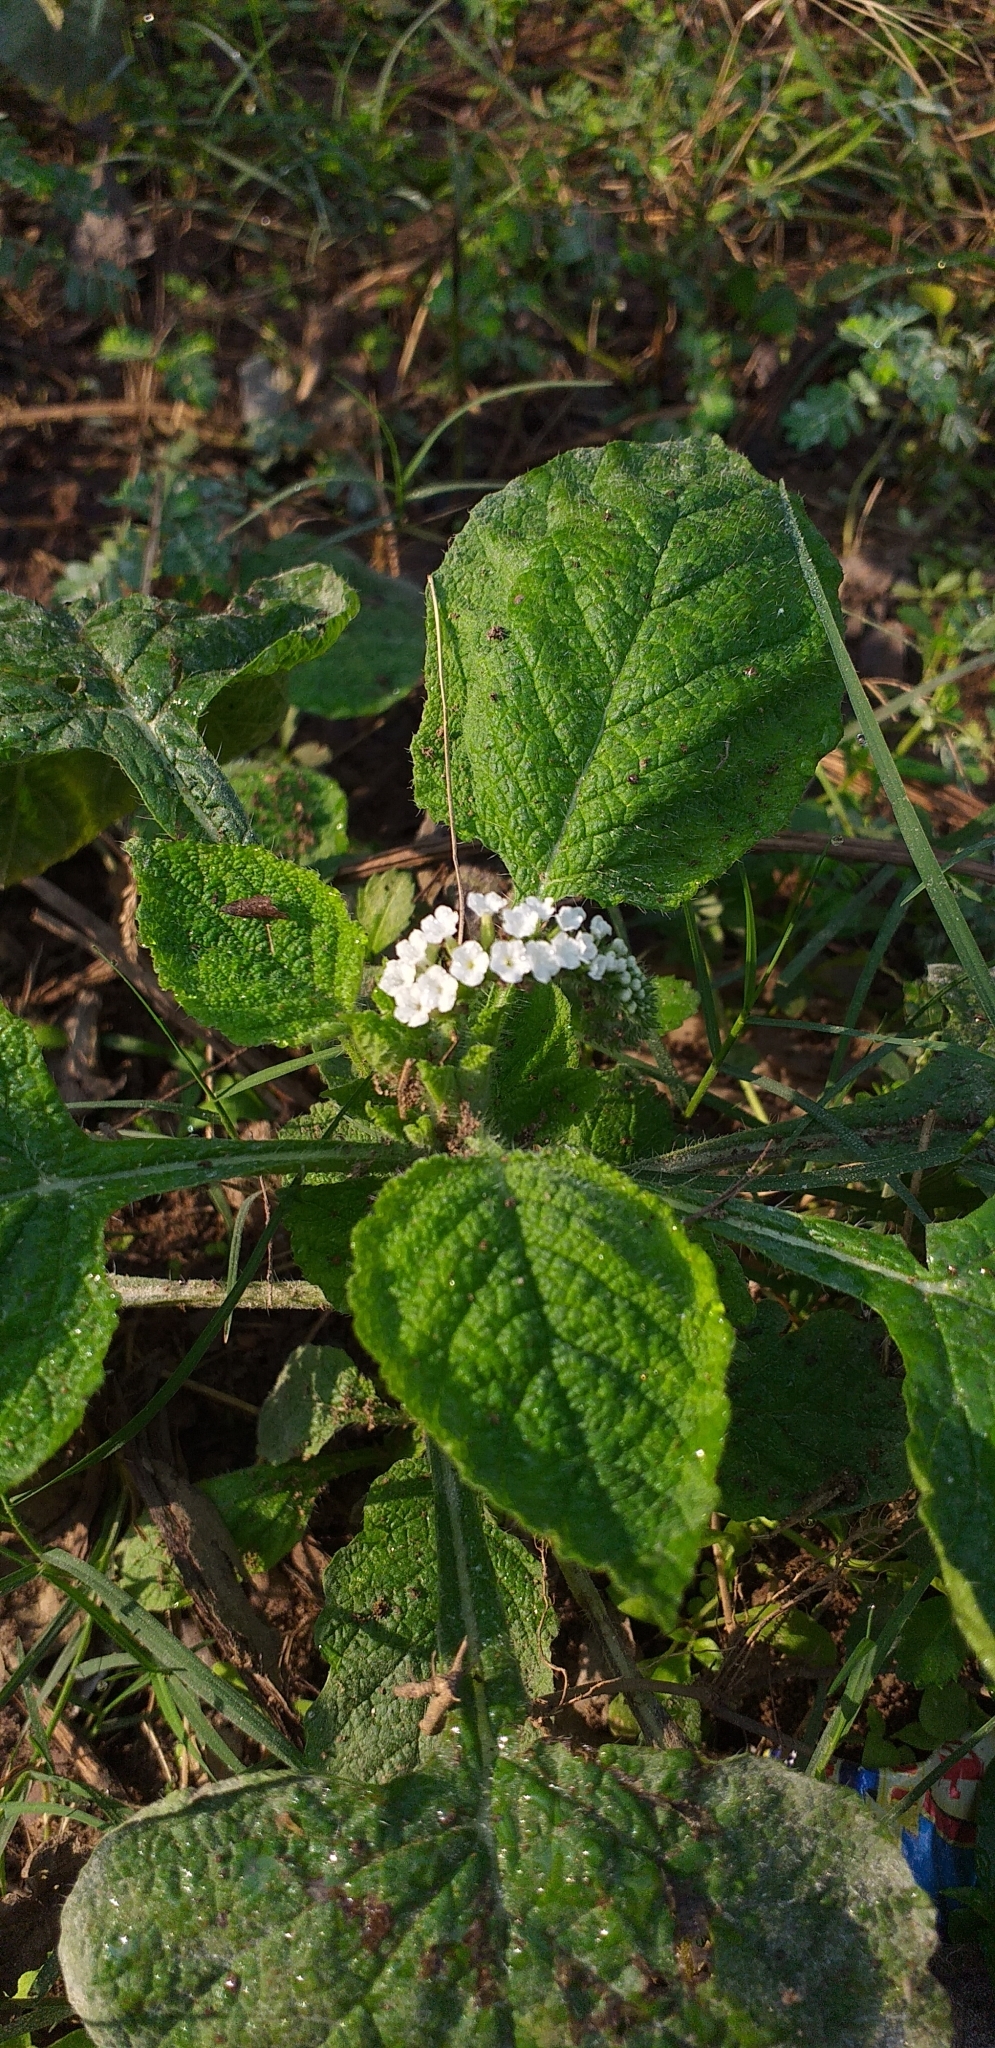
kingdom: Plantae
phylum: Tracheophyta
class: Magnoliopsida
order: Boraginales
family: Heliotropiaceae
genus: Heliotropium
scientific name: Heliotropium indicum
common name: Indian heliotrope
